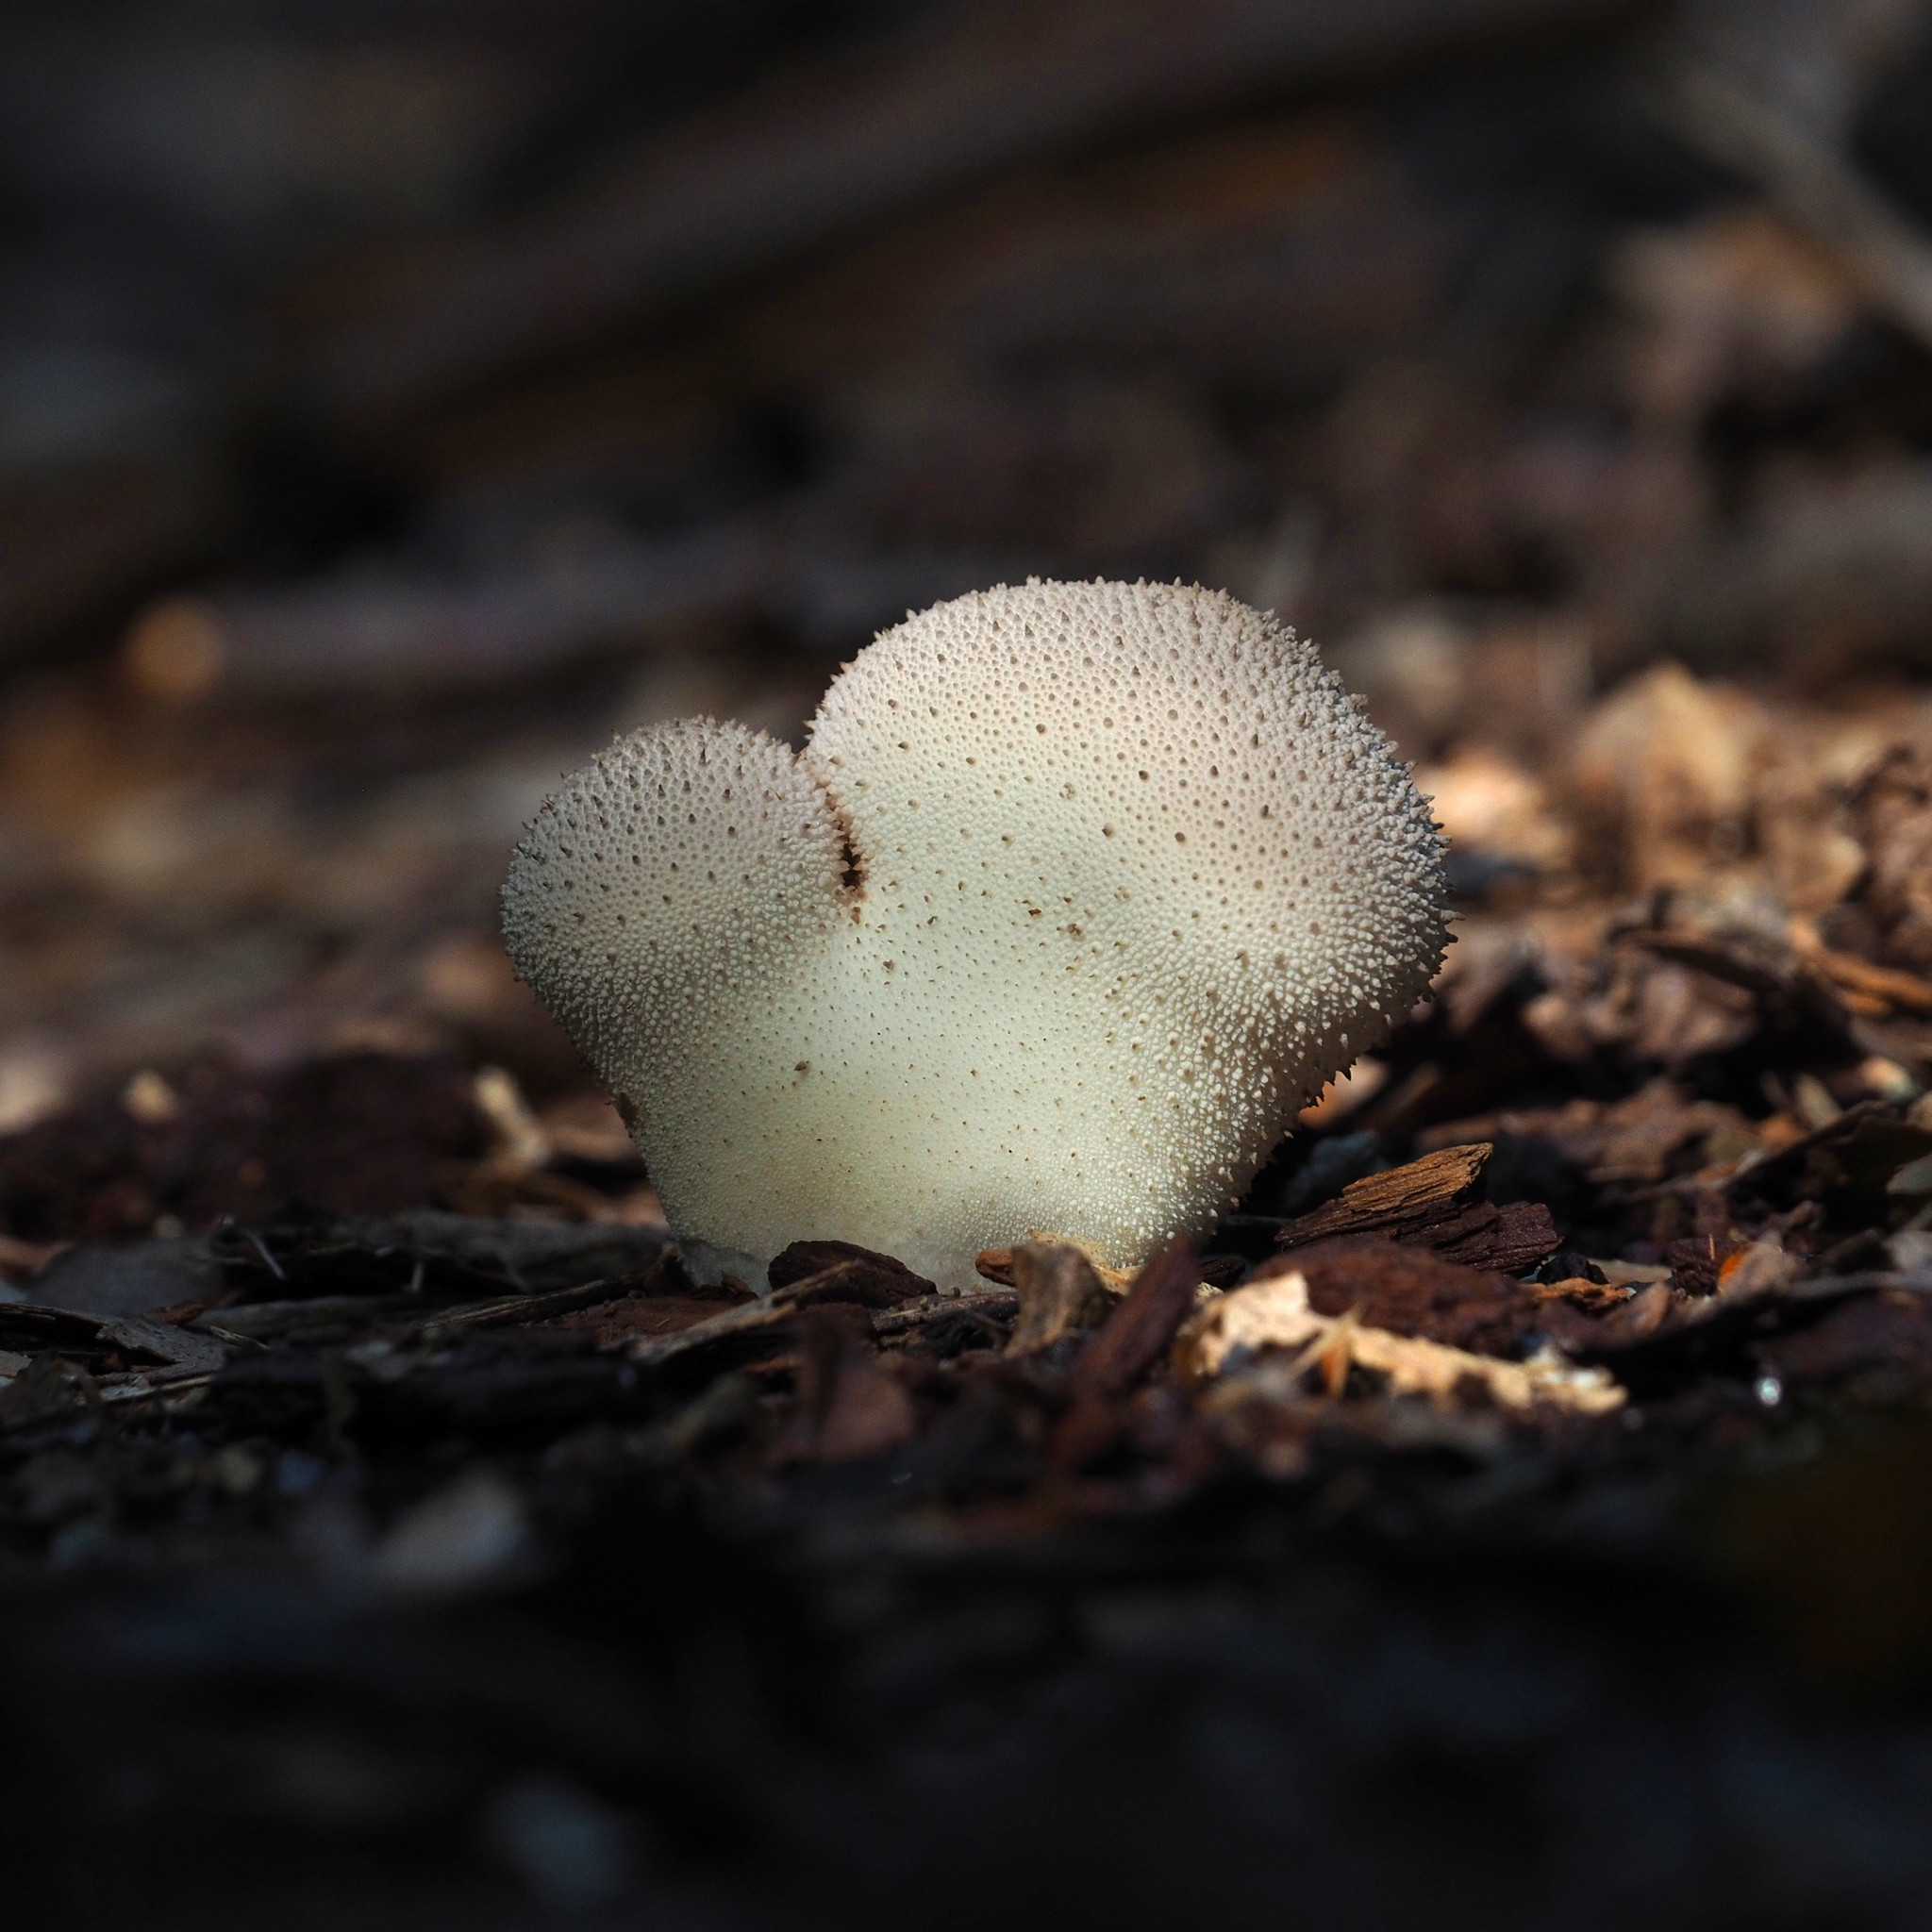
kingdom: Fungi
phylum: Basidiomycota
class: Agaricomycetes
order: Agaricales
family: Lycoperdaceae
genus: Lycoperdon
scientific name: Lycoperdon perlatum
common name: Common puffball
